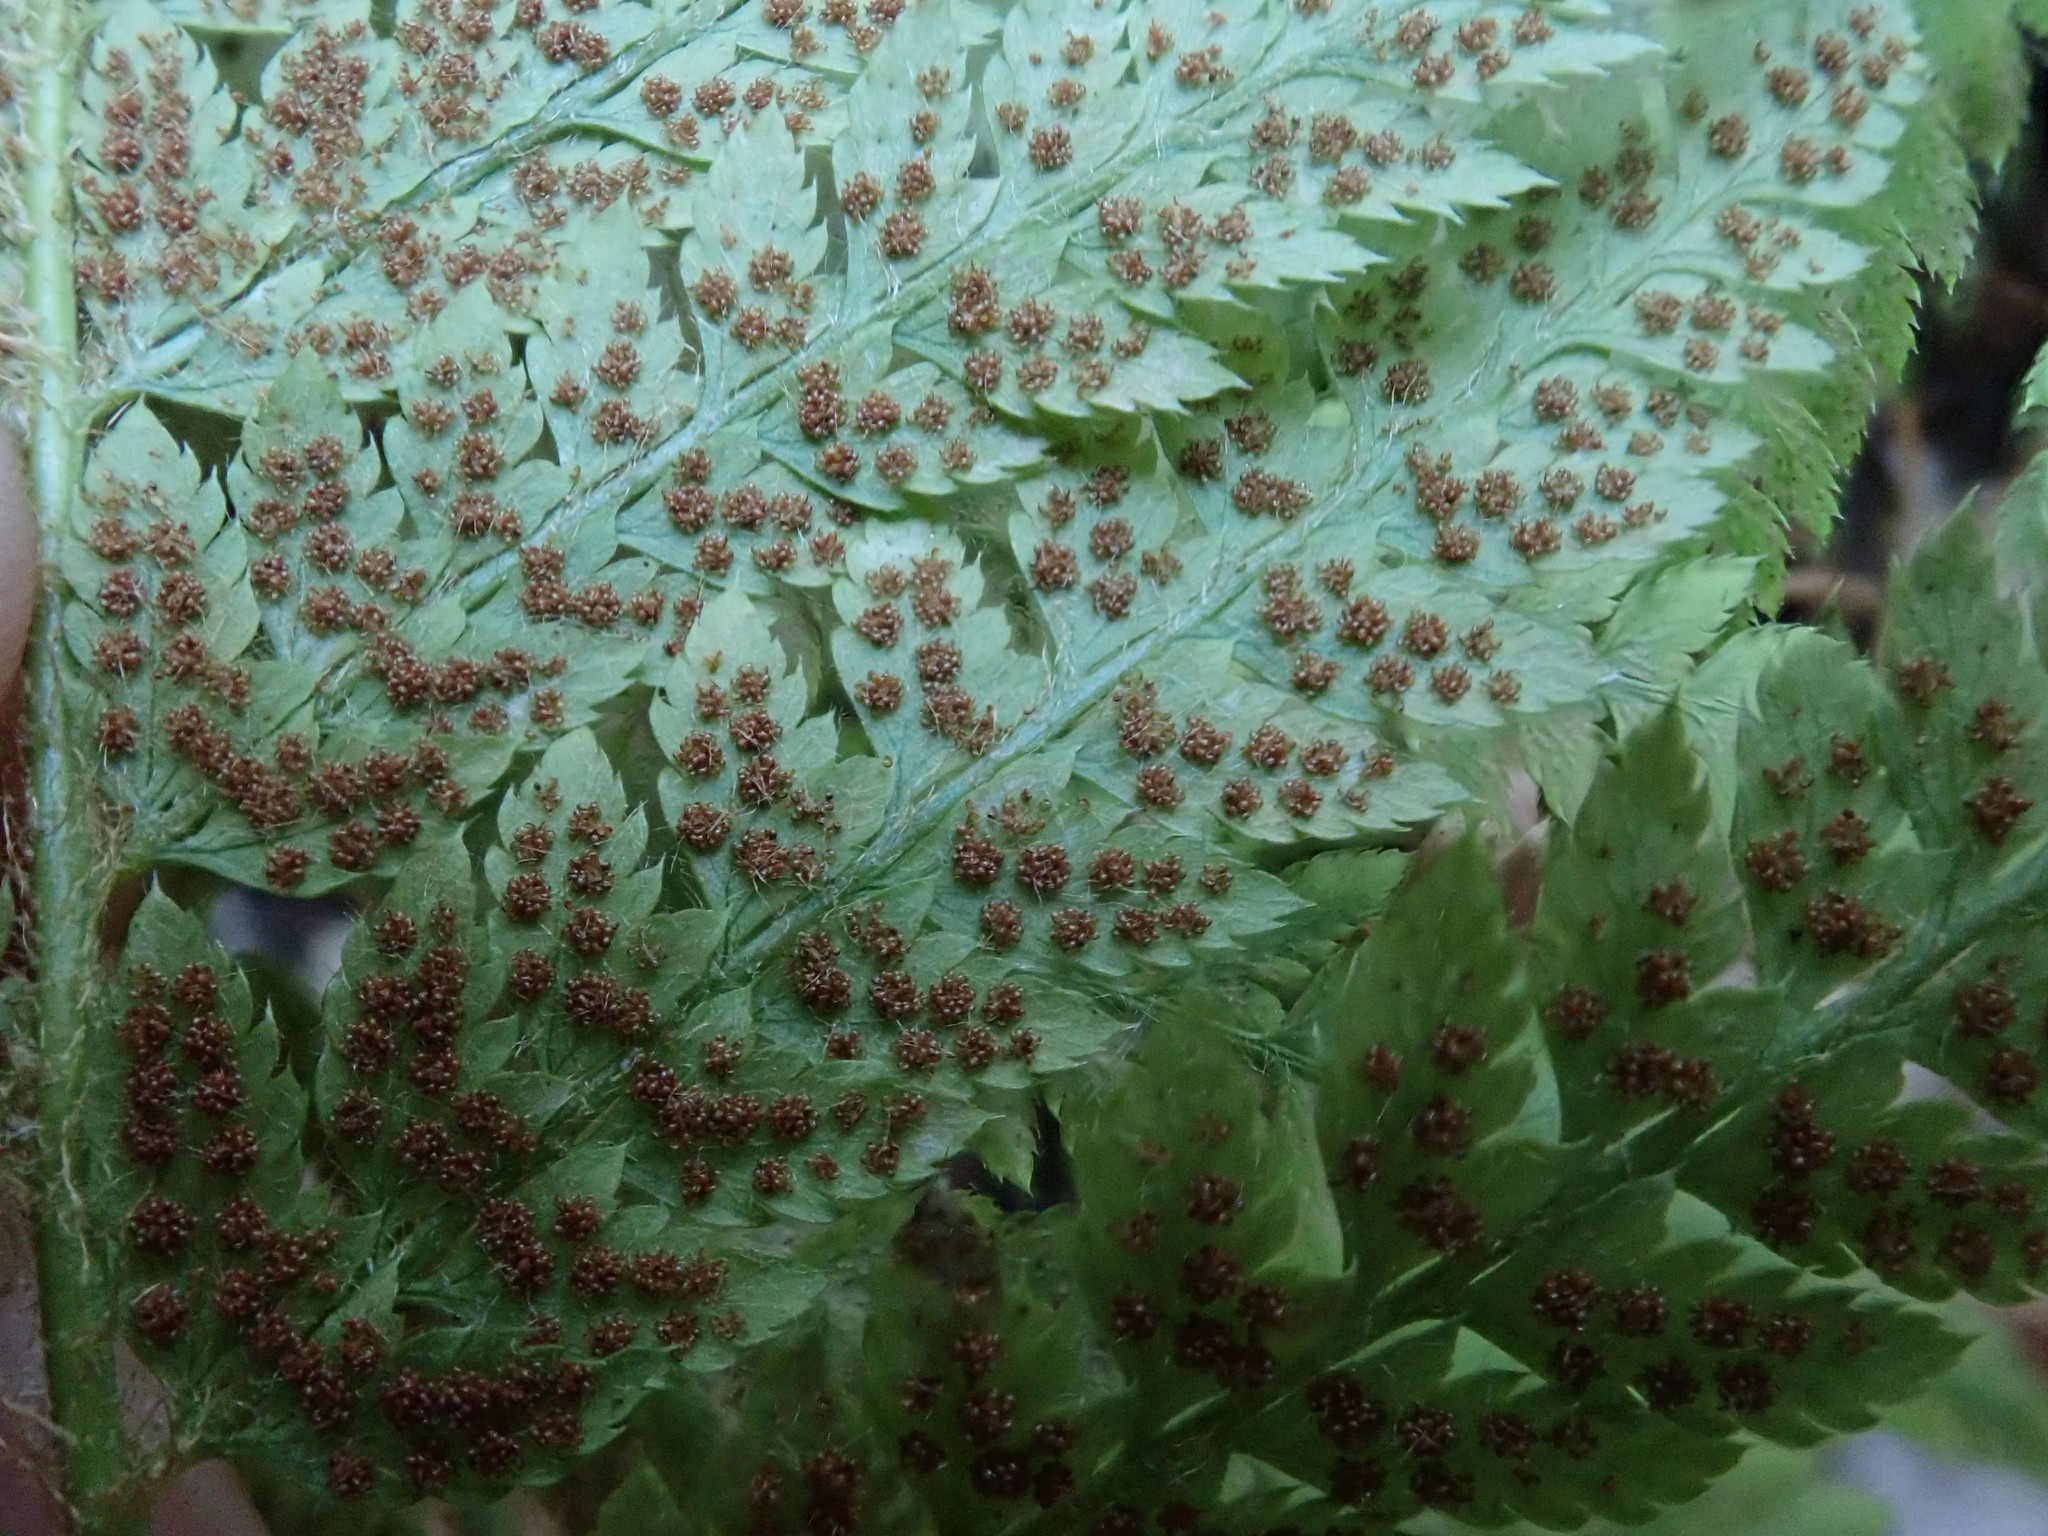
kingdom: Plantae
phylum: Tracheophyta
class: Polypodiopsida
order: Polypodiales
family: Dryopteridaceae
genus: Polystichum
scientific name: Polystichum dudleyi
